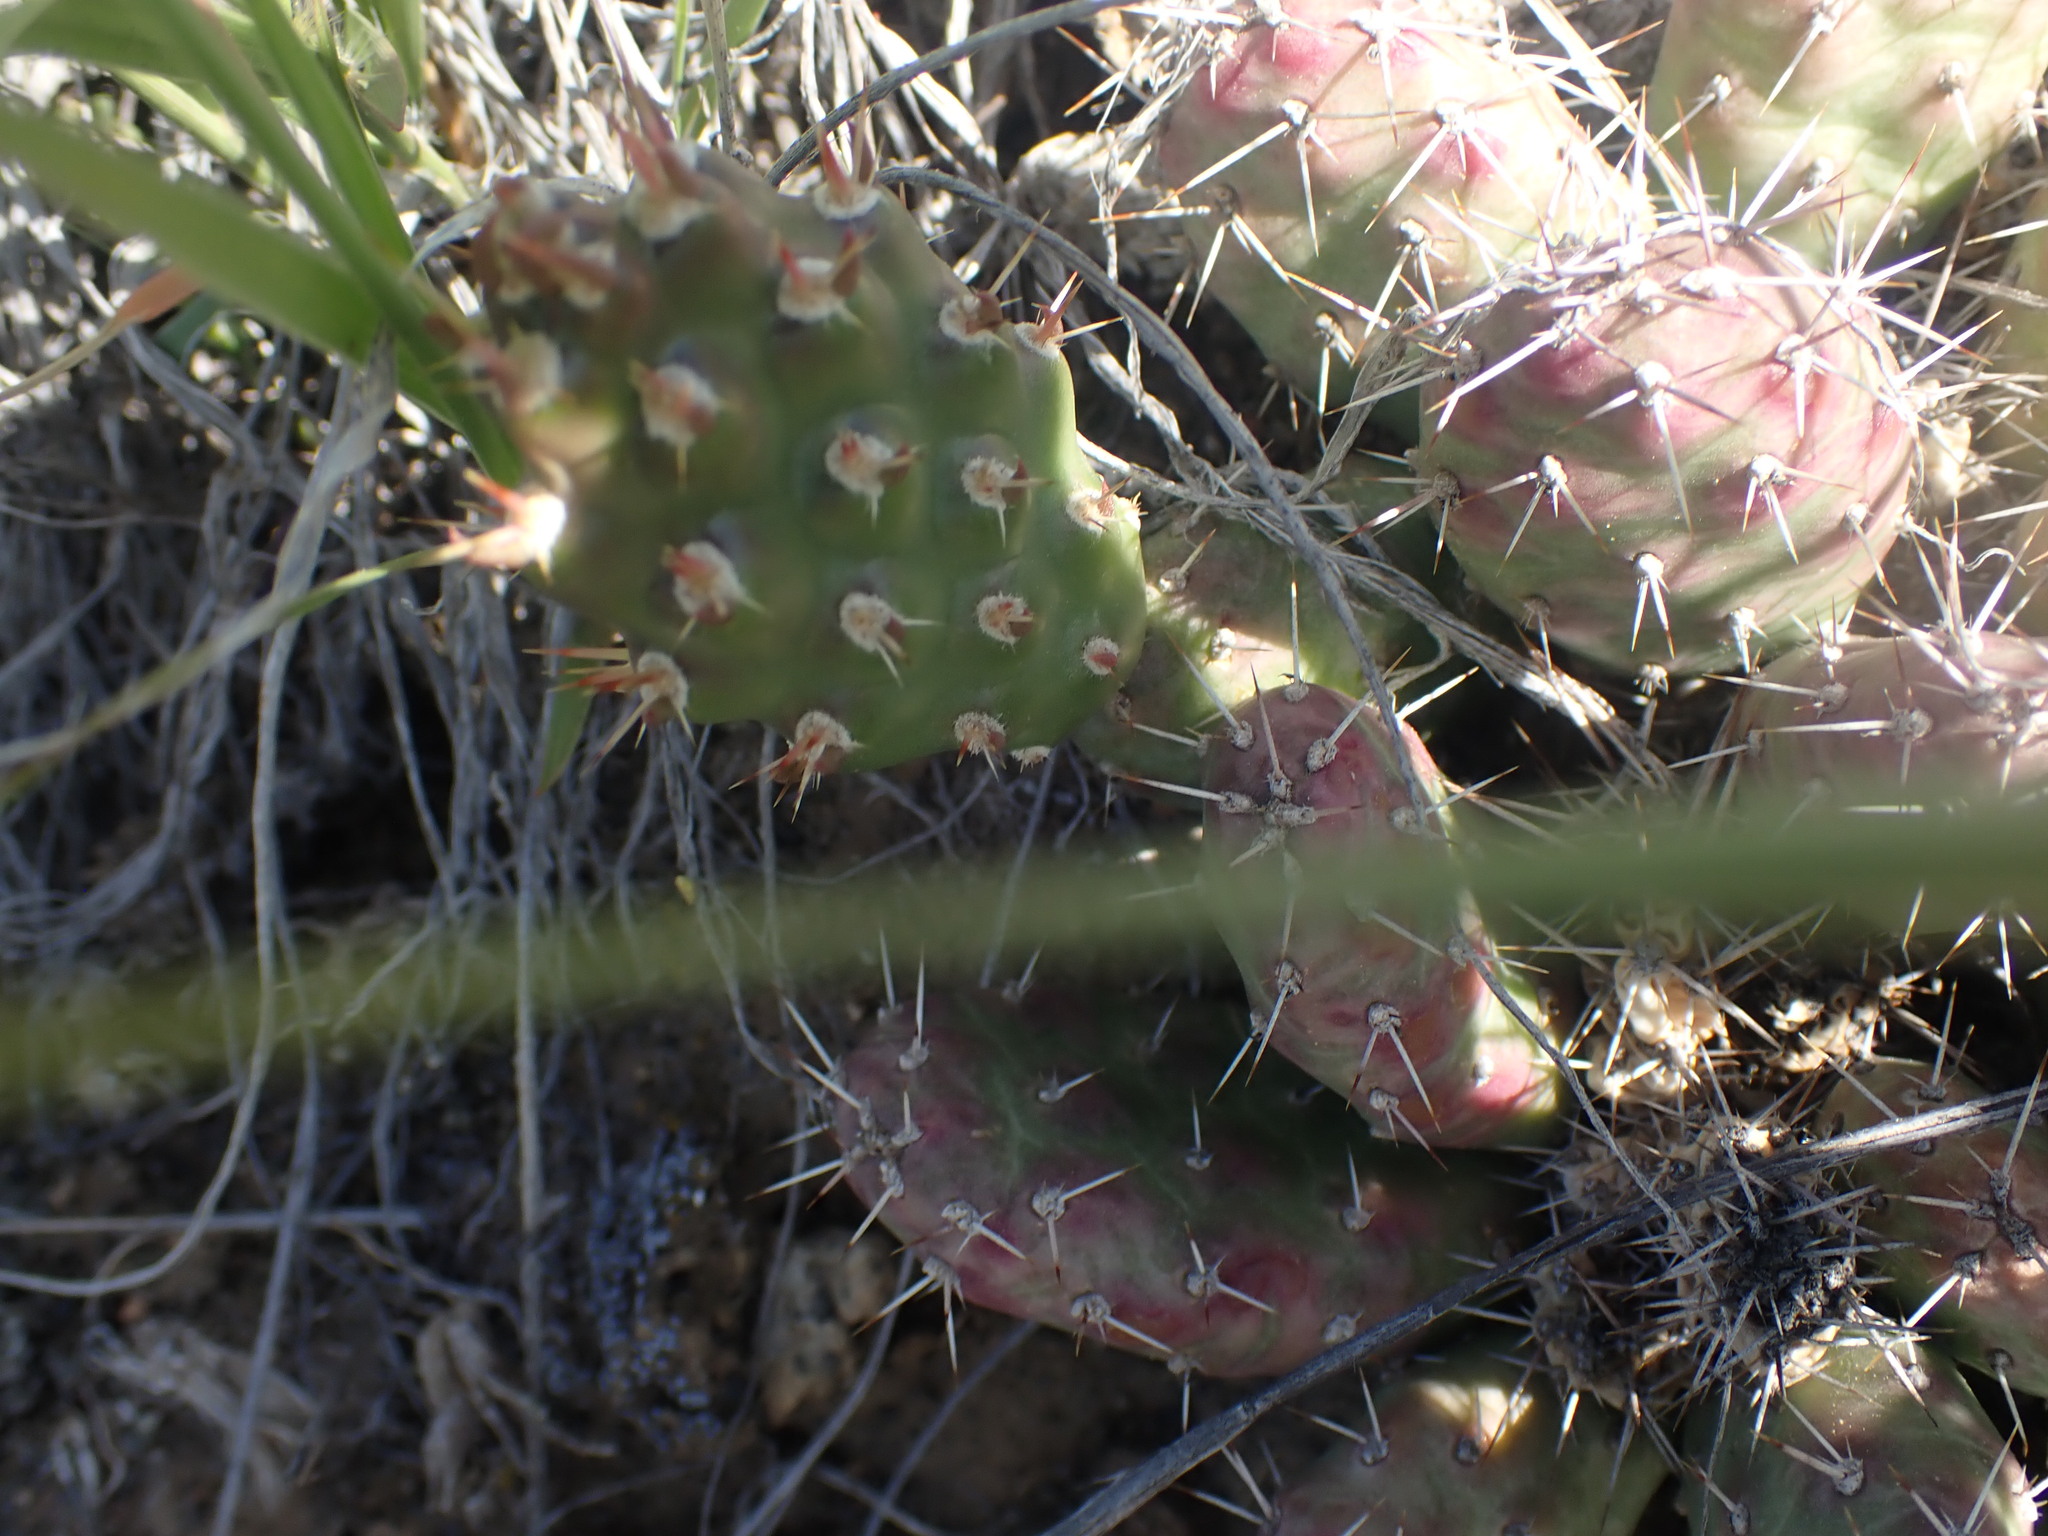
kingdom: Plantae
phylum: Tracheophyta
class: Magnoliopsida
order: Caryophyllales
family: Cactaceae
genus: Opuntia
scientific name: Opuntia fragilis
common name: Brittle cactus
